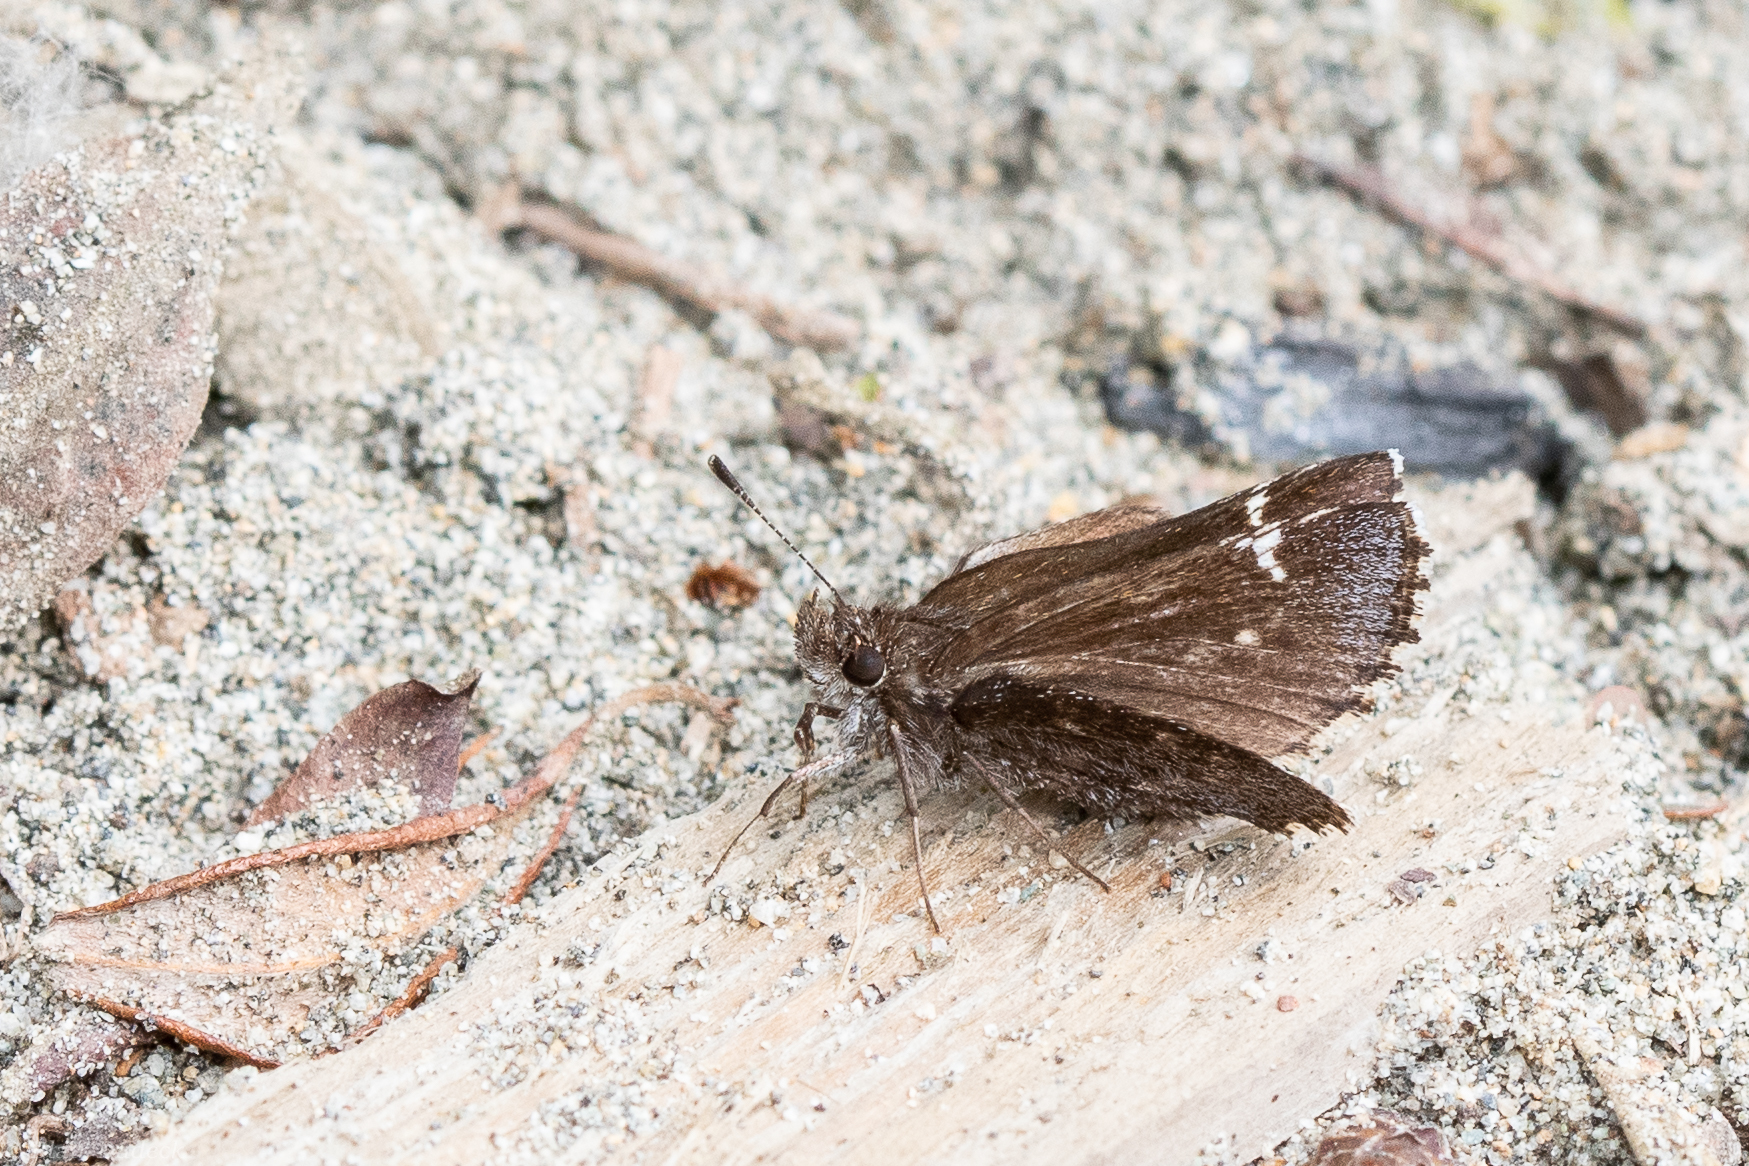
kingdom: Animalia
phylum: Arthropoda
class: Insecta
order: Lepidoptera
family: Hesperiidae
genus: Mastor
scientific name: Mastor vialis
